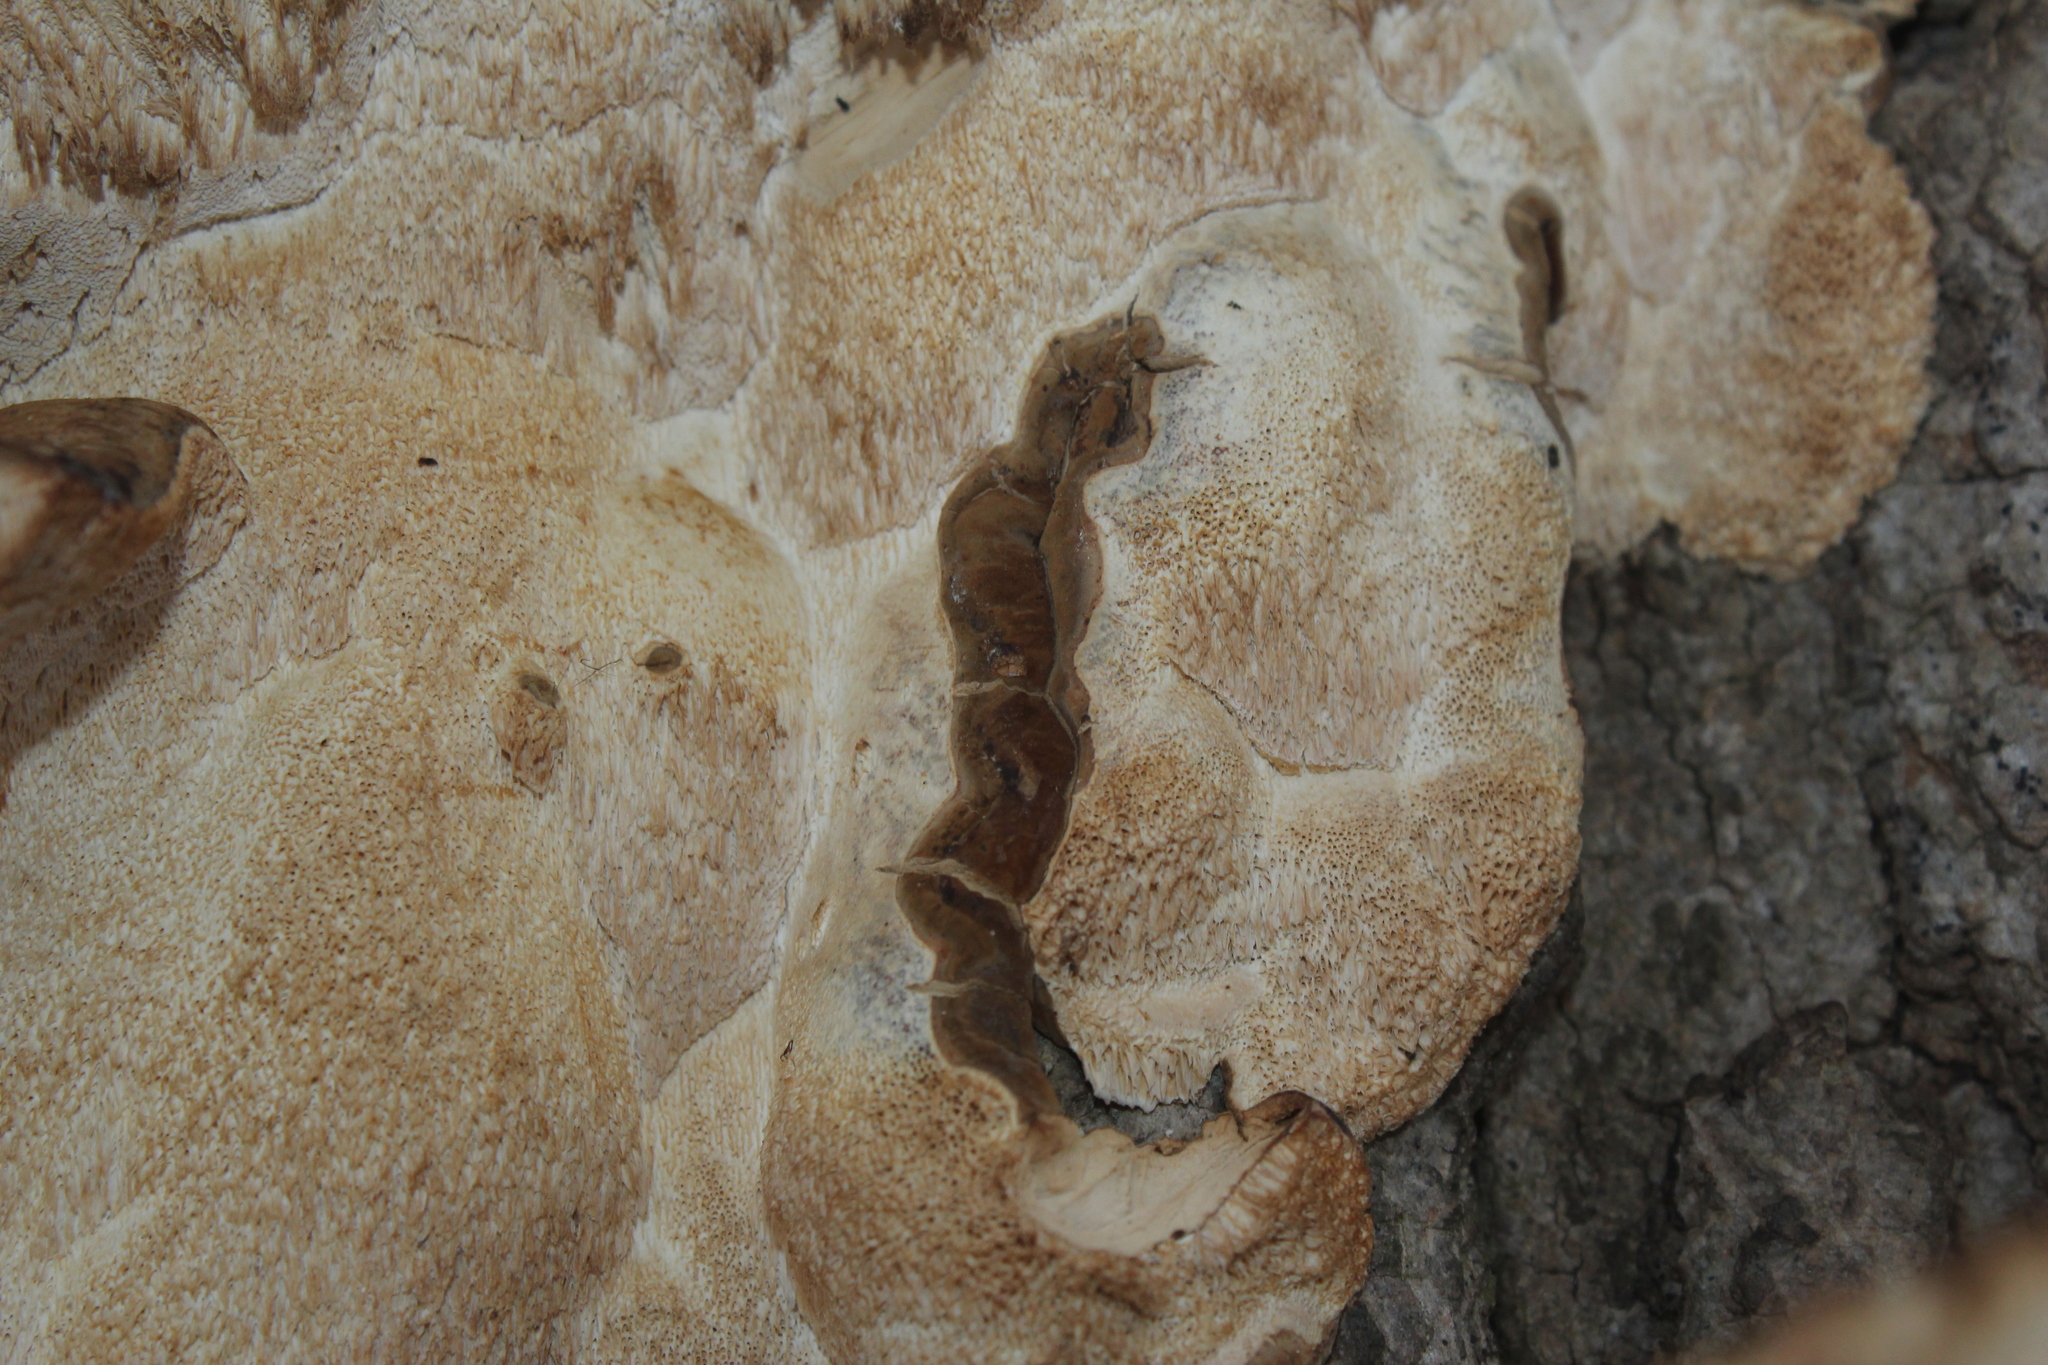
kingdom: Fungi
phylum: Basidiomycota
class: Agaricomycetes
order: Polyporales
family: Ischnodermataceae
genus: Ischnoderma
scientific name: Ischnoderma resinosum
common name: Resinous polypore
